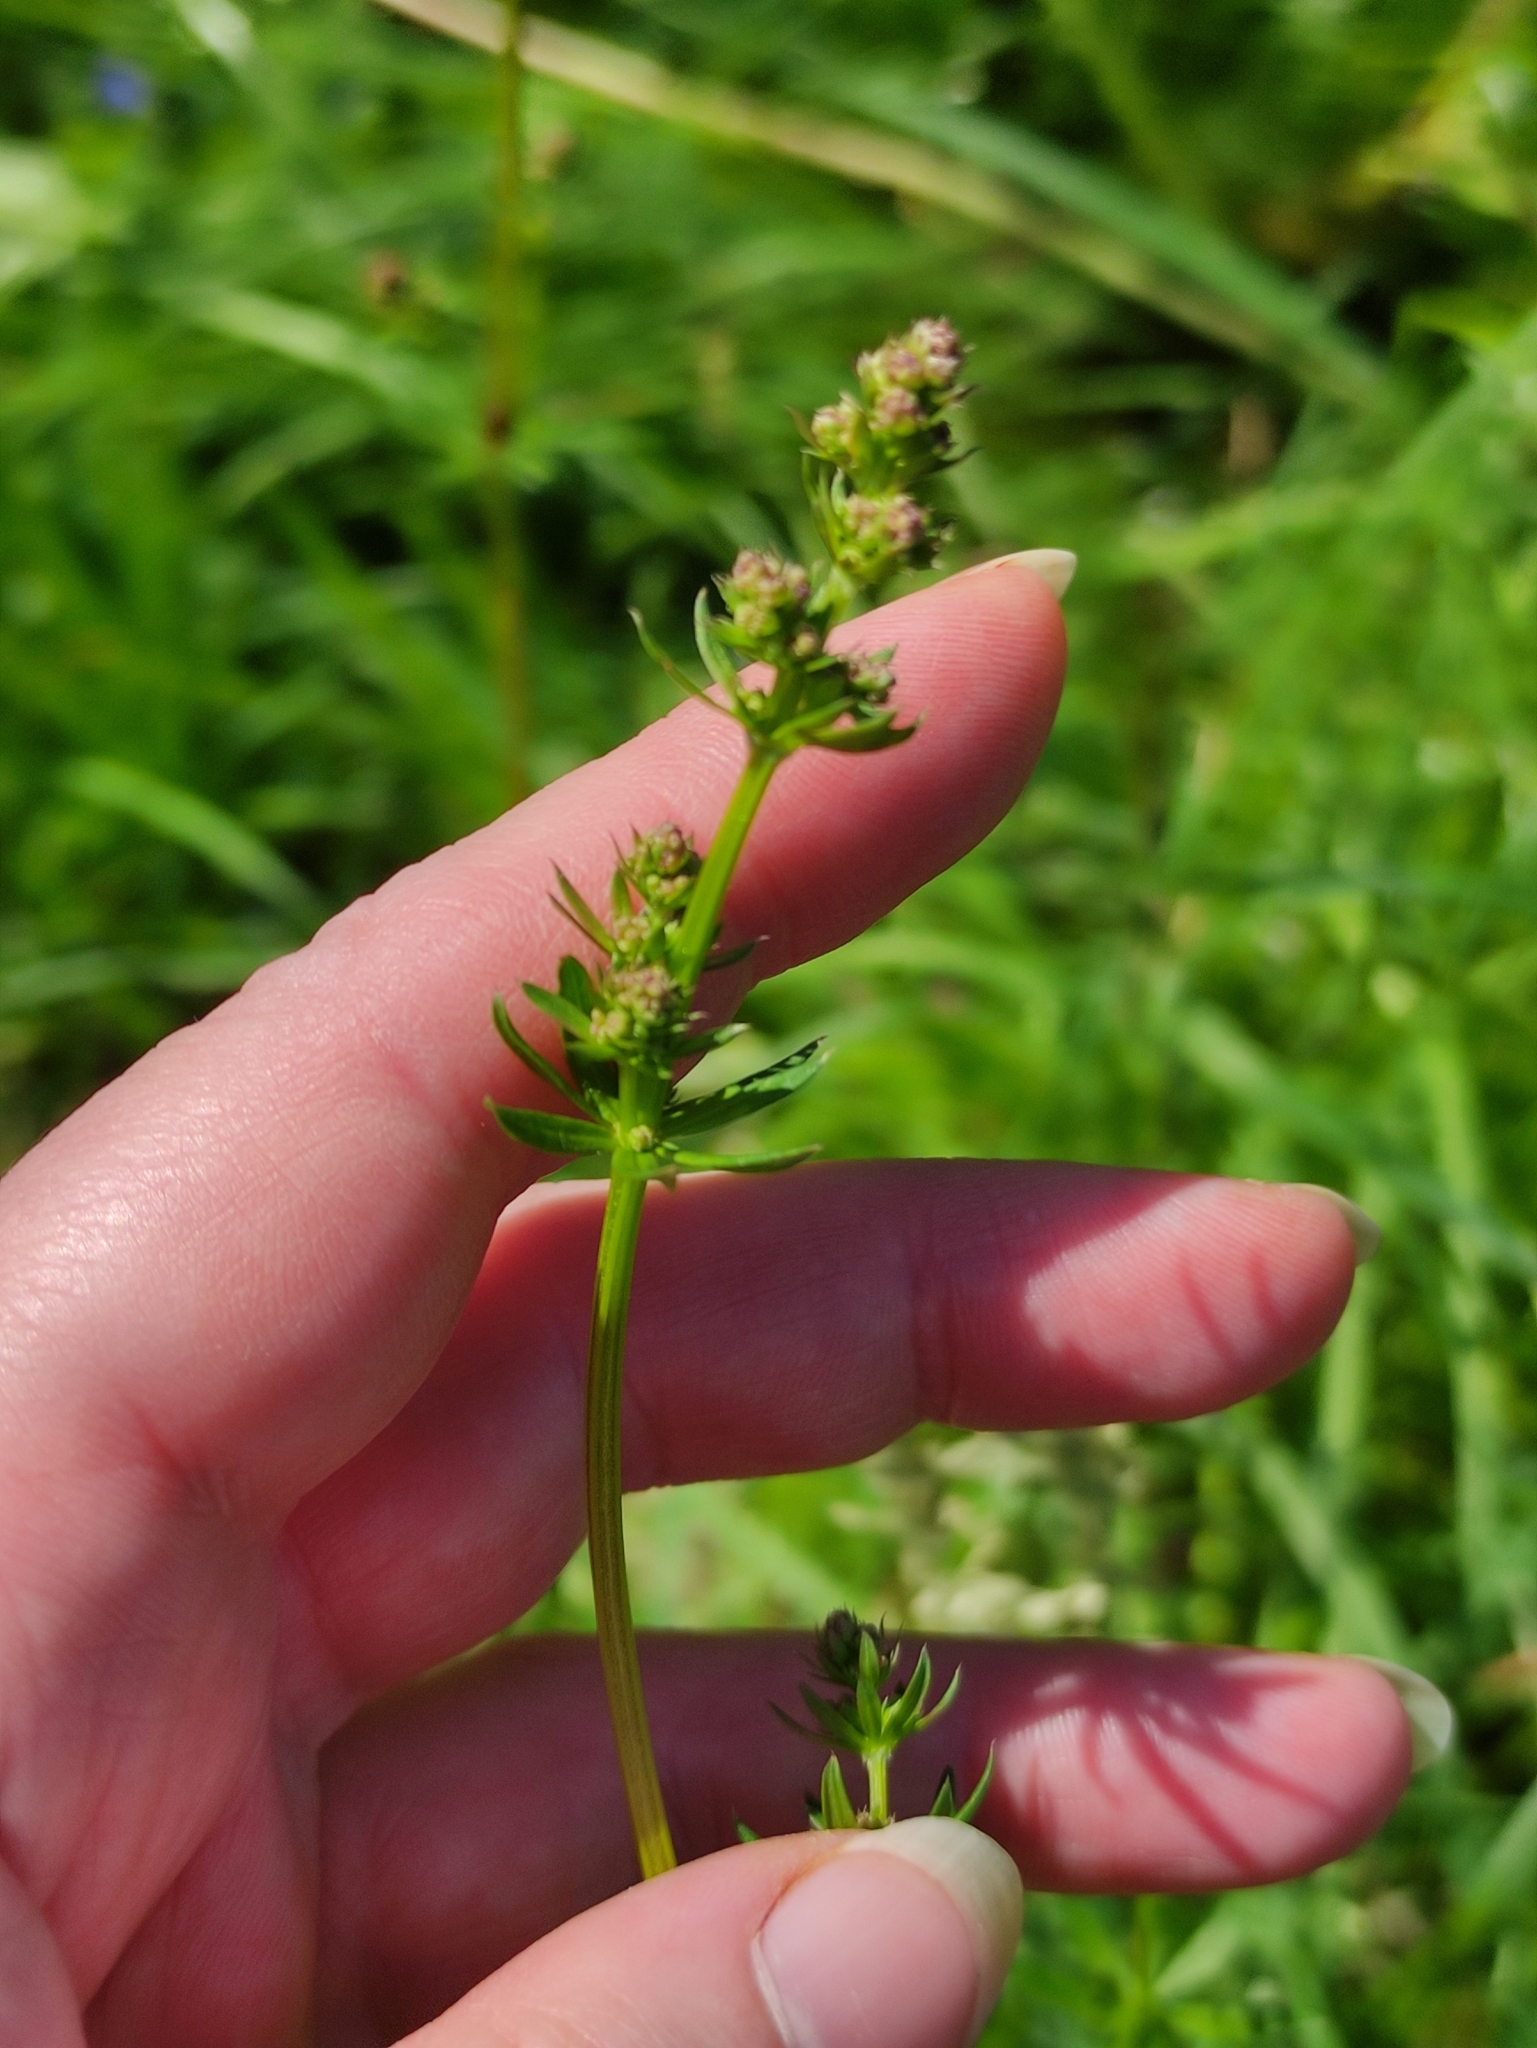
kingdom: Plantae
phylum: Tracheophyta
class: Magnoliopsida
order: Gentianales
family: Rubiaceae
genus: Galium
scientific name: Galium mollugo
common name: Hedge bedstraw
